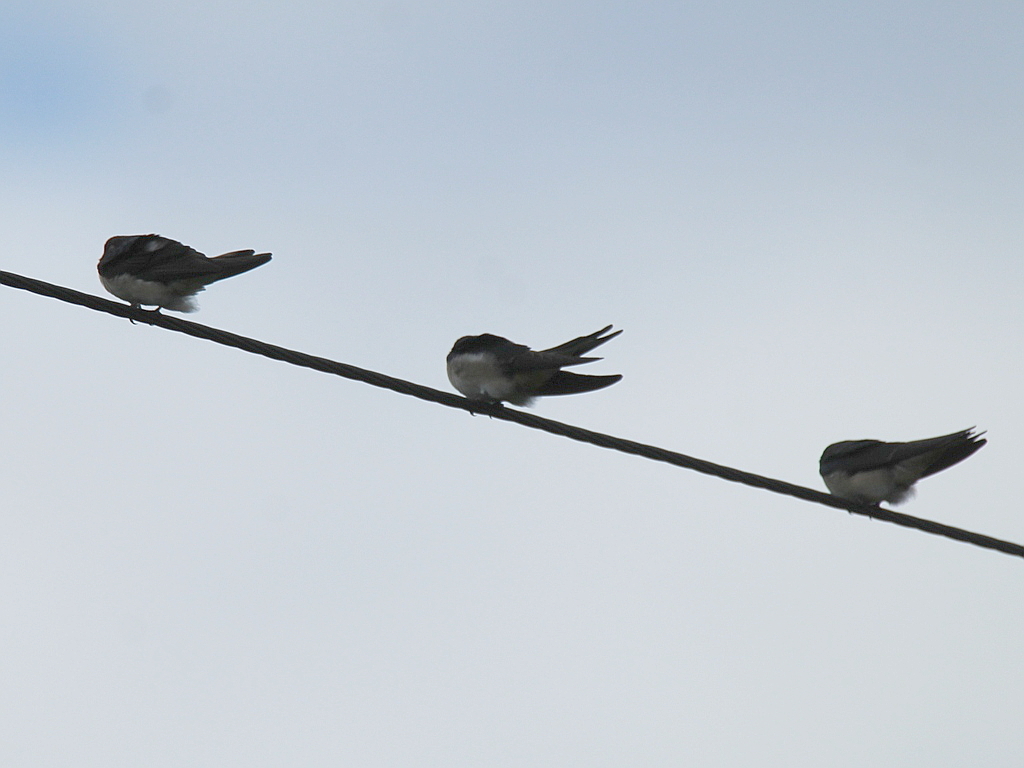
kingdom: Animalia
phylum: Chordata
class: Aves
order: Passeriformes
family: Hirundinidae
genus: Hirundo
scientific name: Hirundo rustica
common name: Barn swallow
